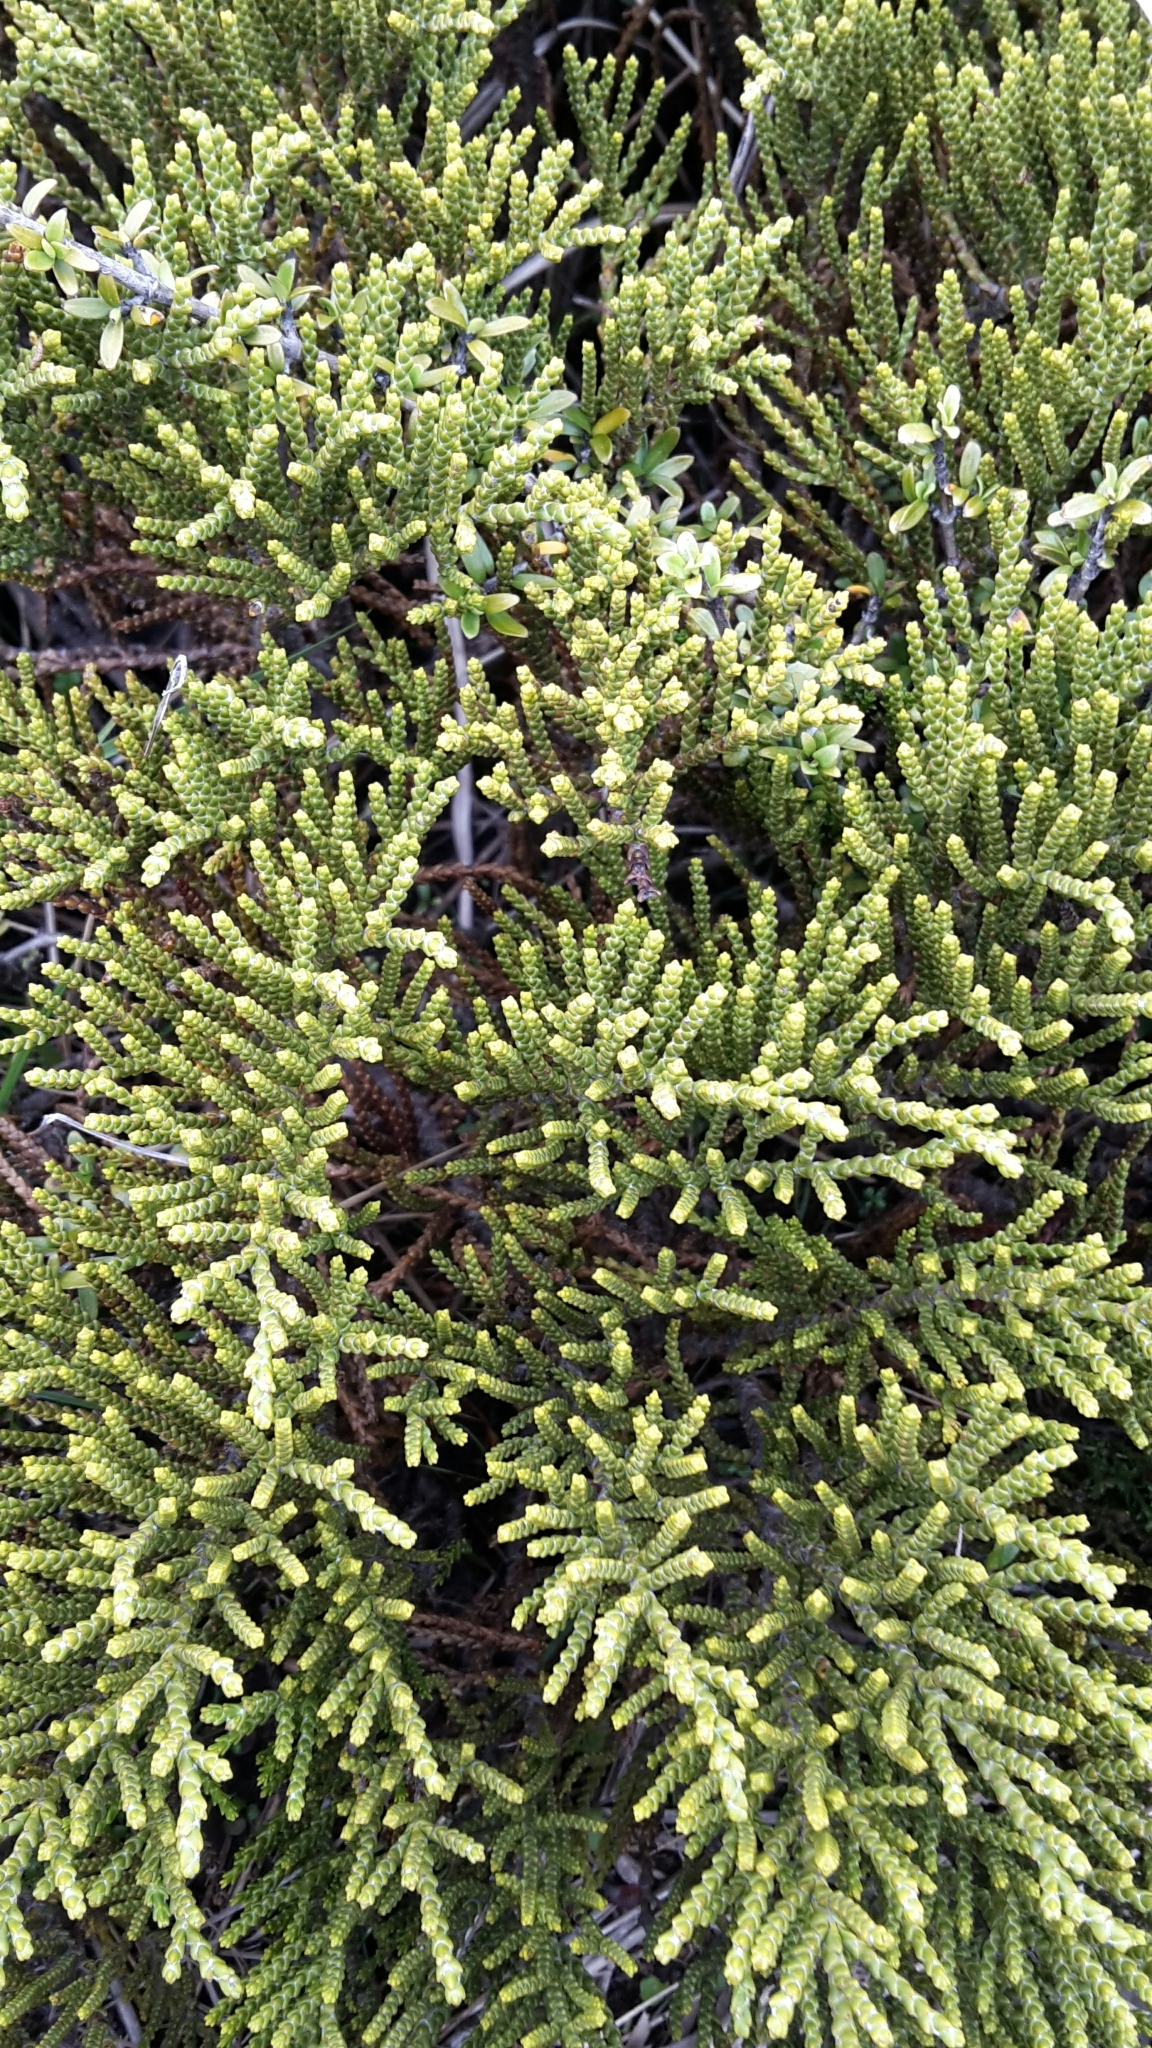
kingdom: Plantae
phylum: Tracheophyta
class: Magnoliopsida
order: Lamiales
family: Plantaginaceae
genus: Veronica
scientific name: Veronica tetragona
